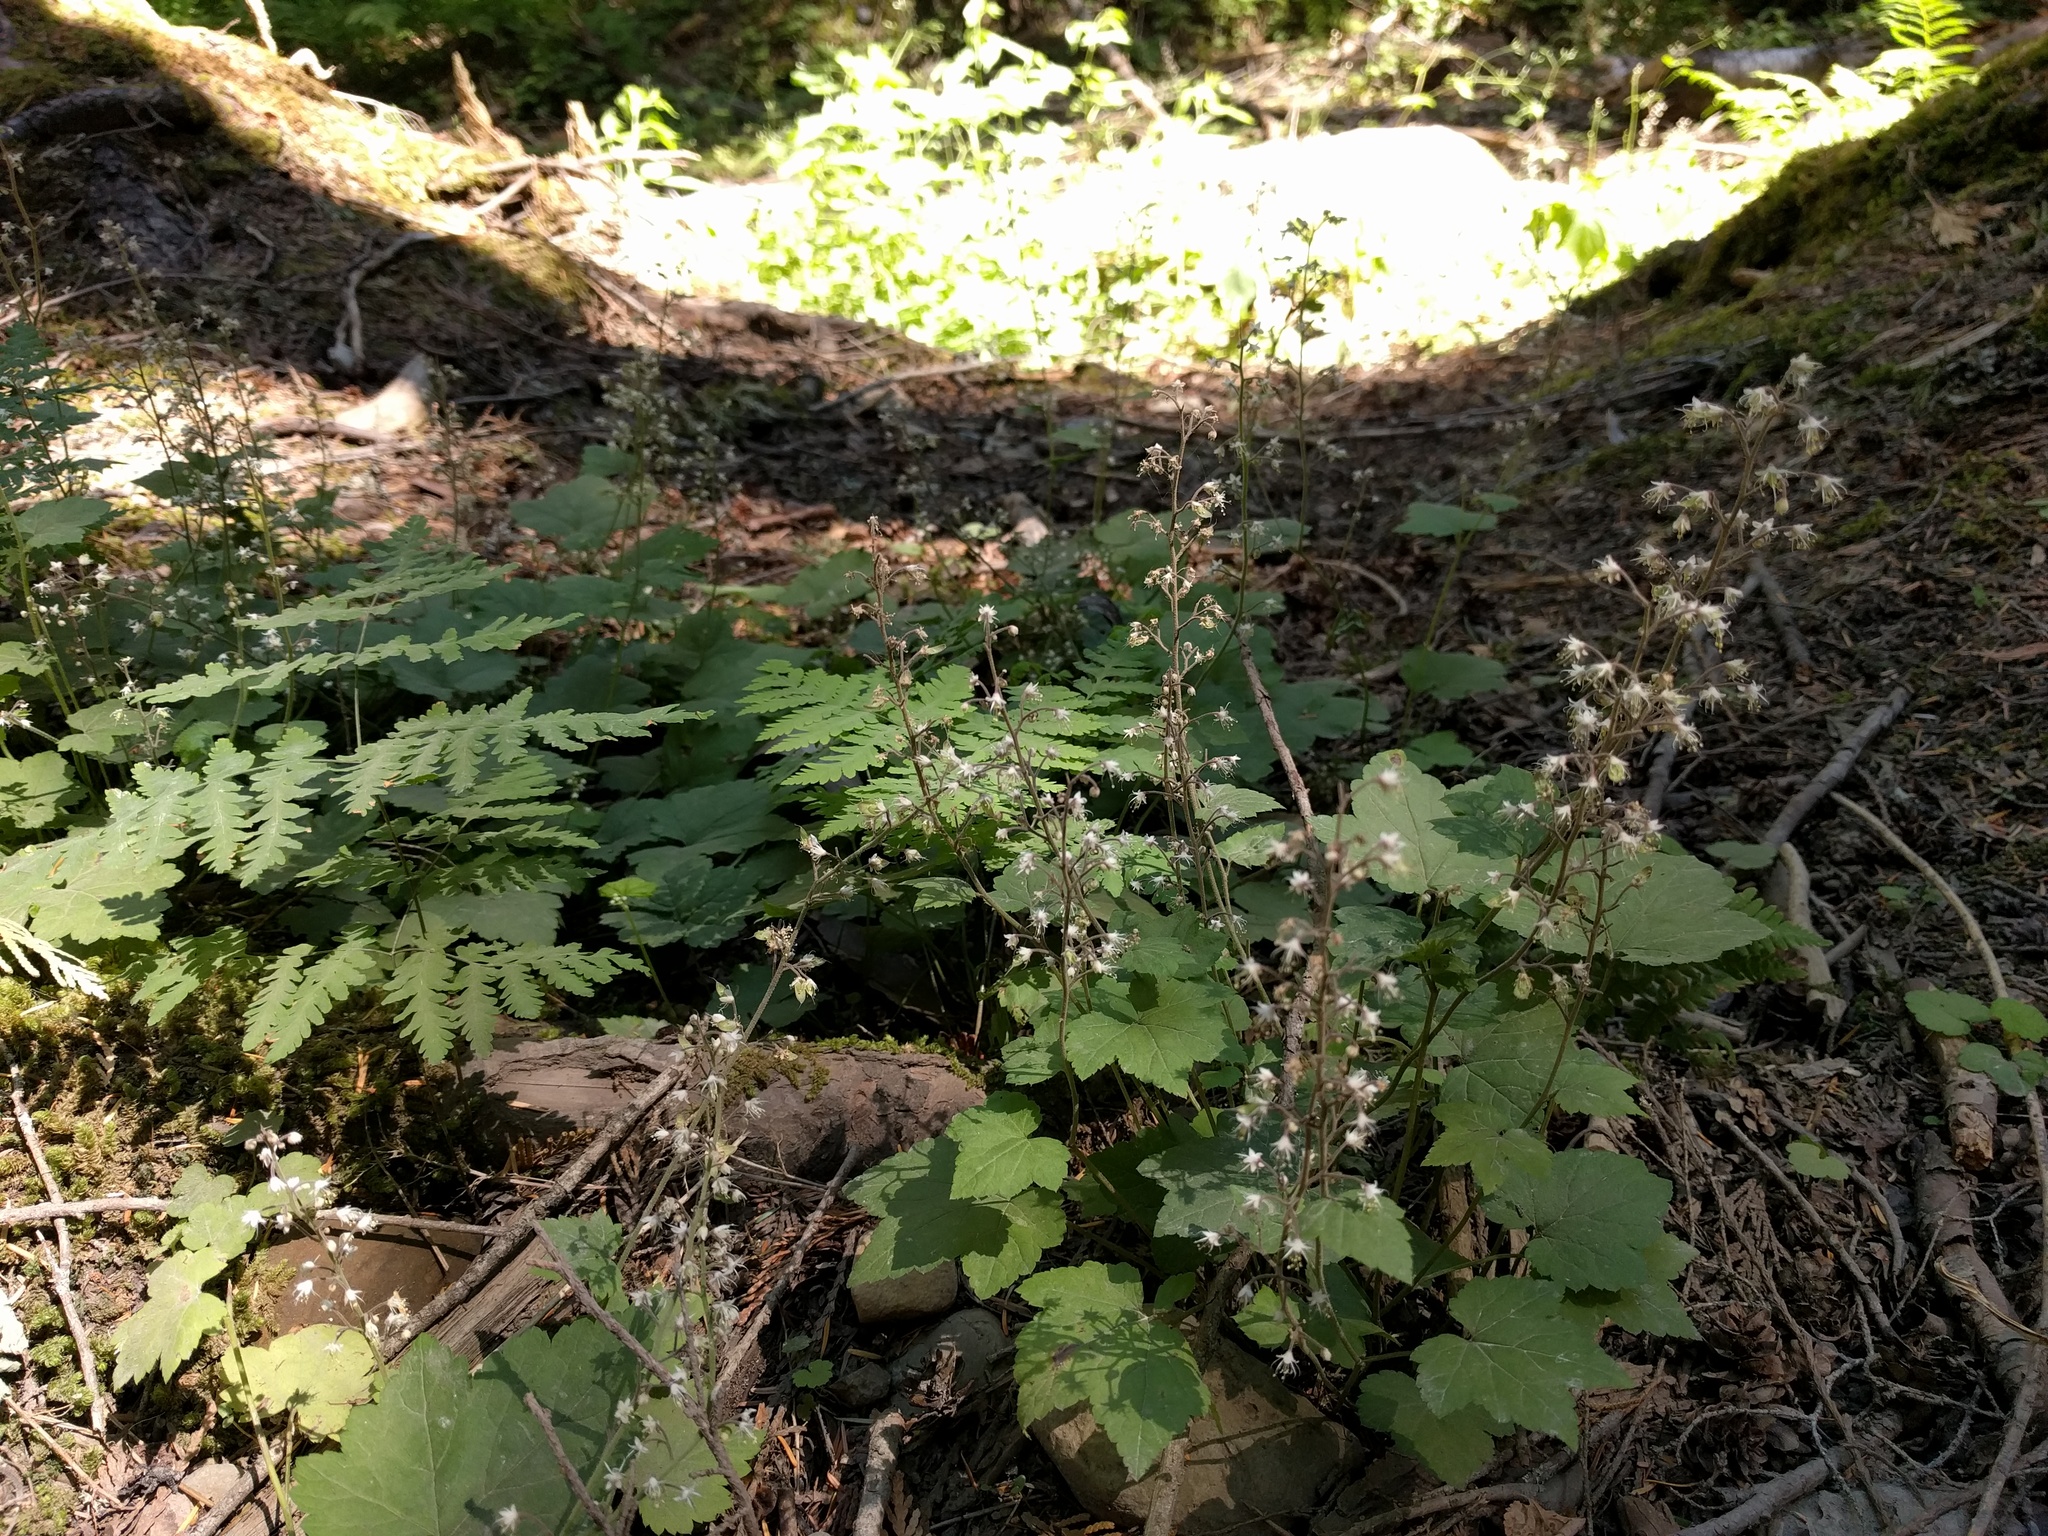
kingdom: Plantae
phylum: Tracheophyta
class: Magnoliopsida
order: Saxifragales
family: Saxifragaceae
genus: Tiarella
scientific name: Tiarella trifoliata
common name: Sugar-scoop
